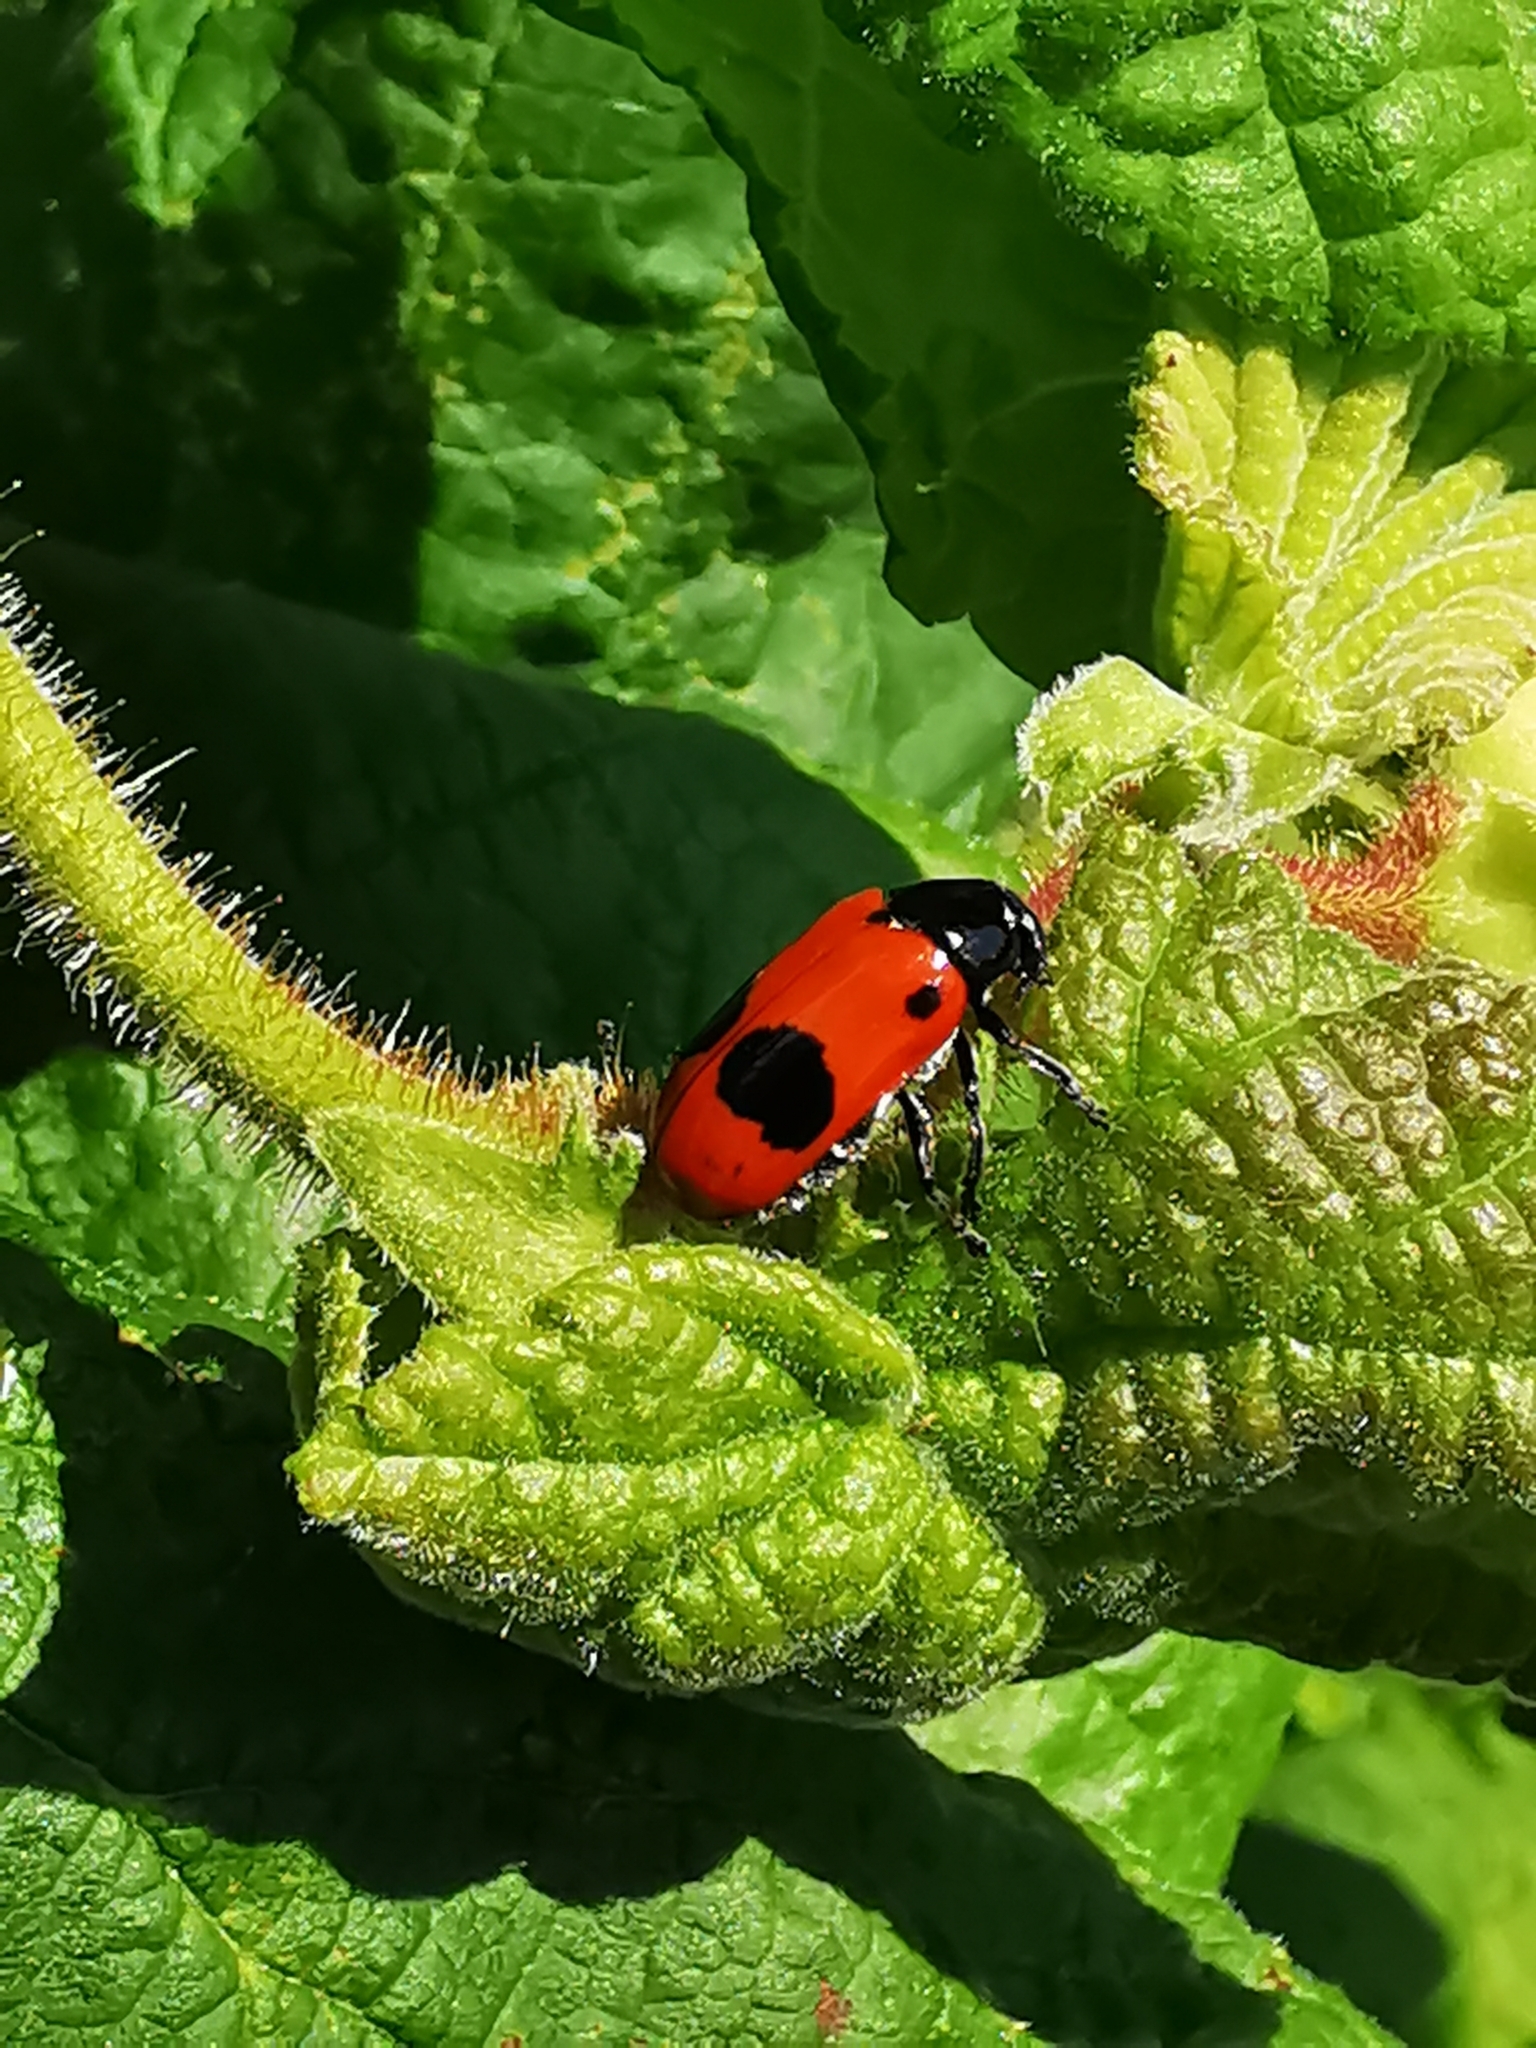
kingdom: Animalia
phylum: Arthropoda
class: Insecta
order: Coleoptera
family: Chrysomelidae
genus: Clytra
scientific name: Clytra laeviuscula
